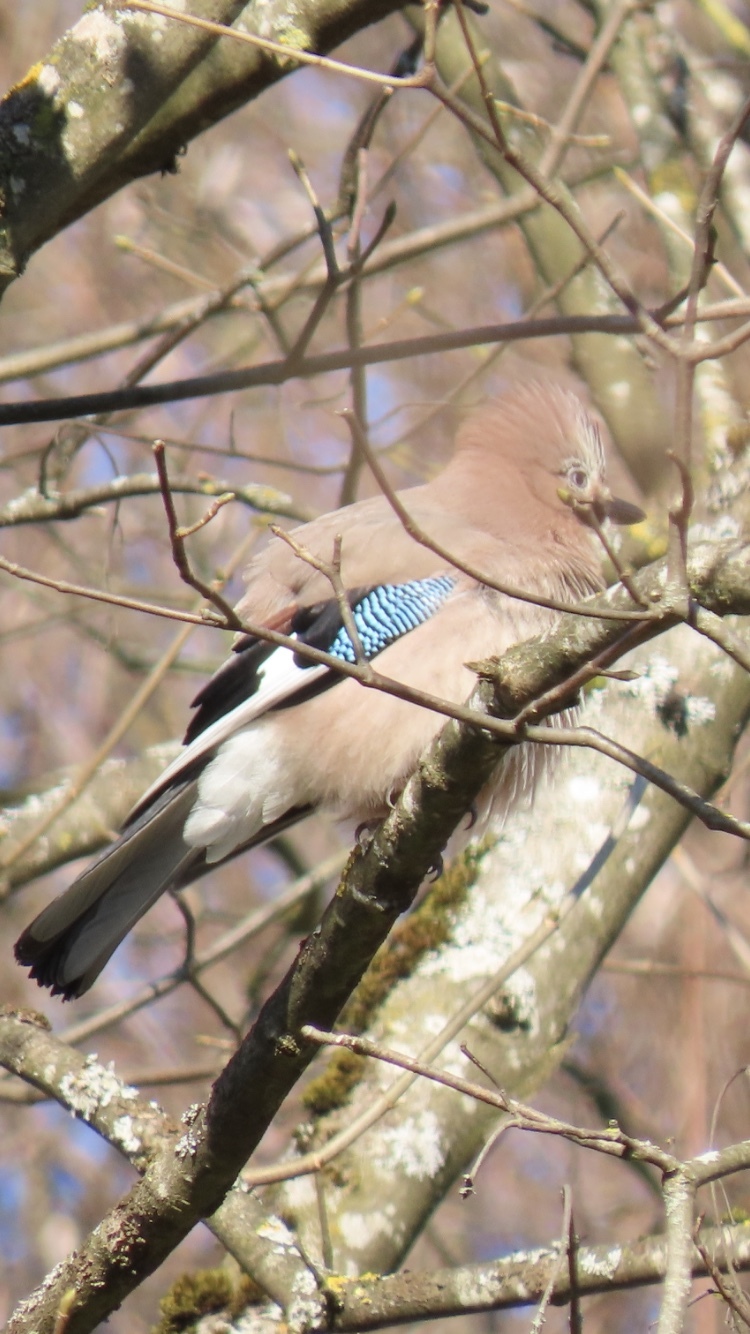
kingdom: Animalia
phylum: Chordata
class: Aves
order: Passeriformes
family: Corvidae
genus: Garrulus
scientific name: Garrulus glandarius
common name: Eurasian jay
